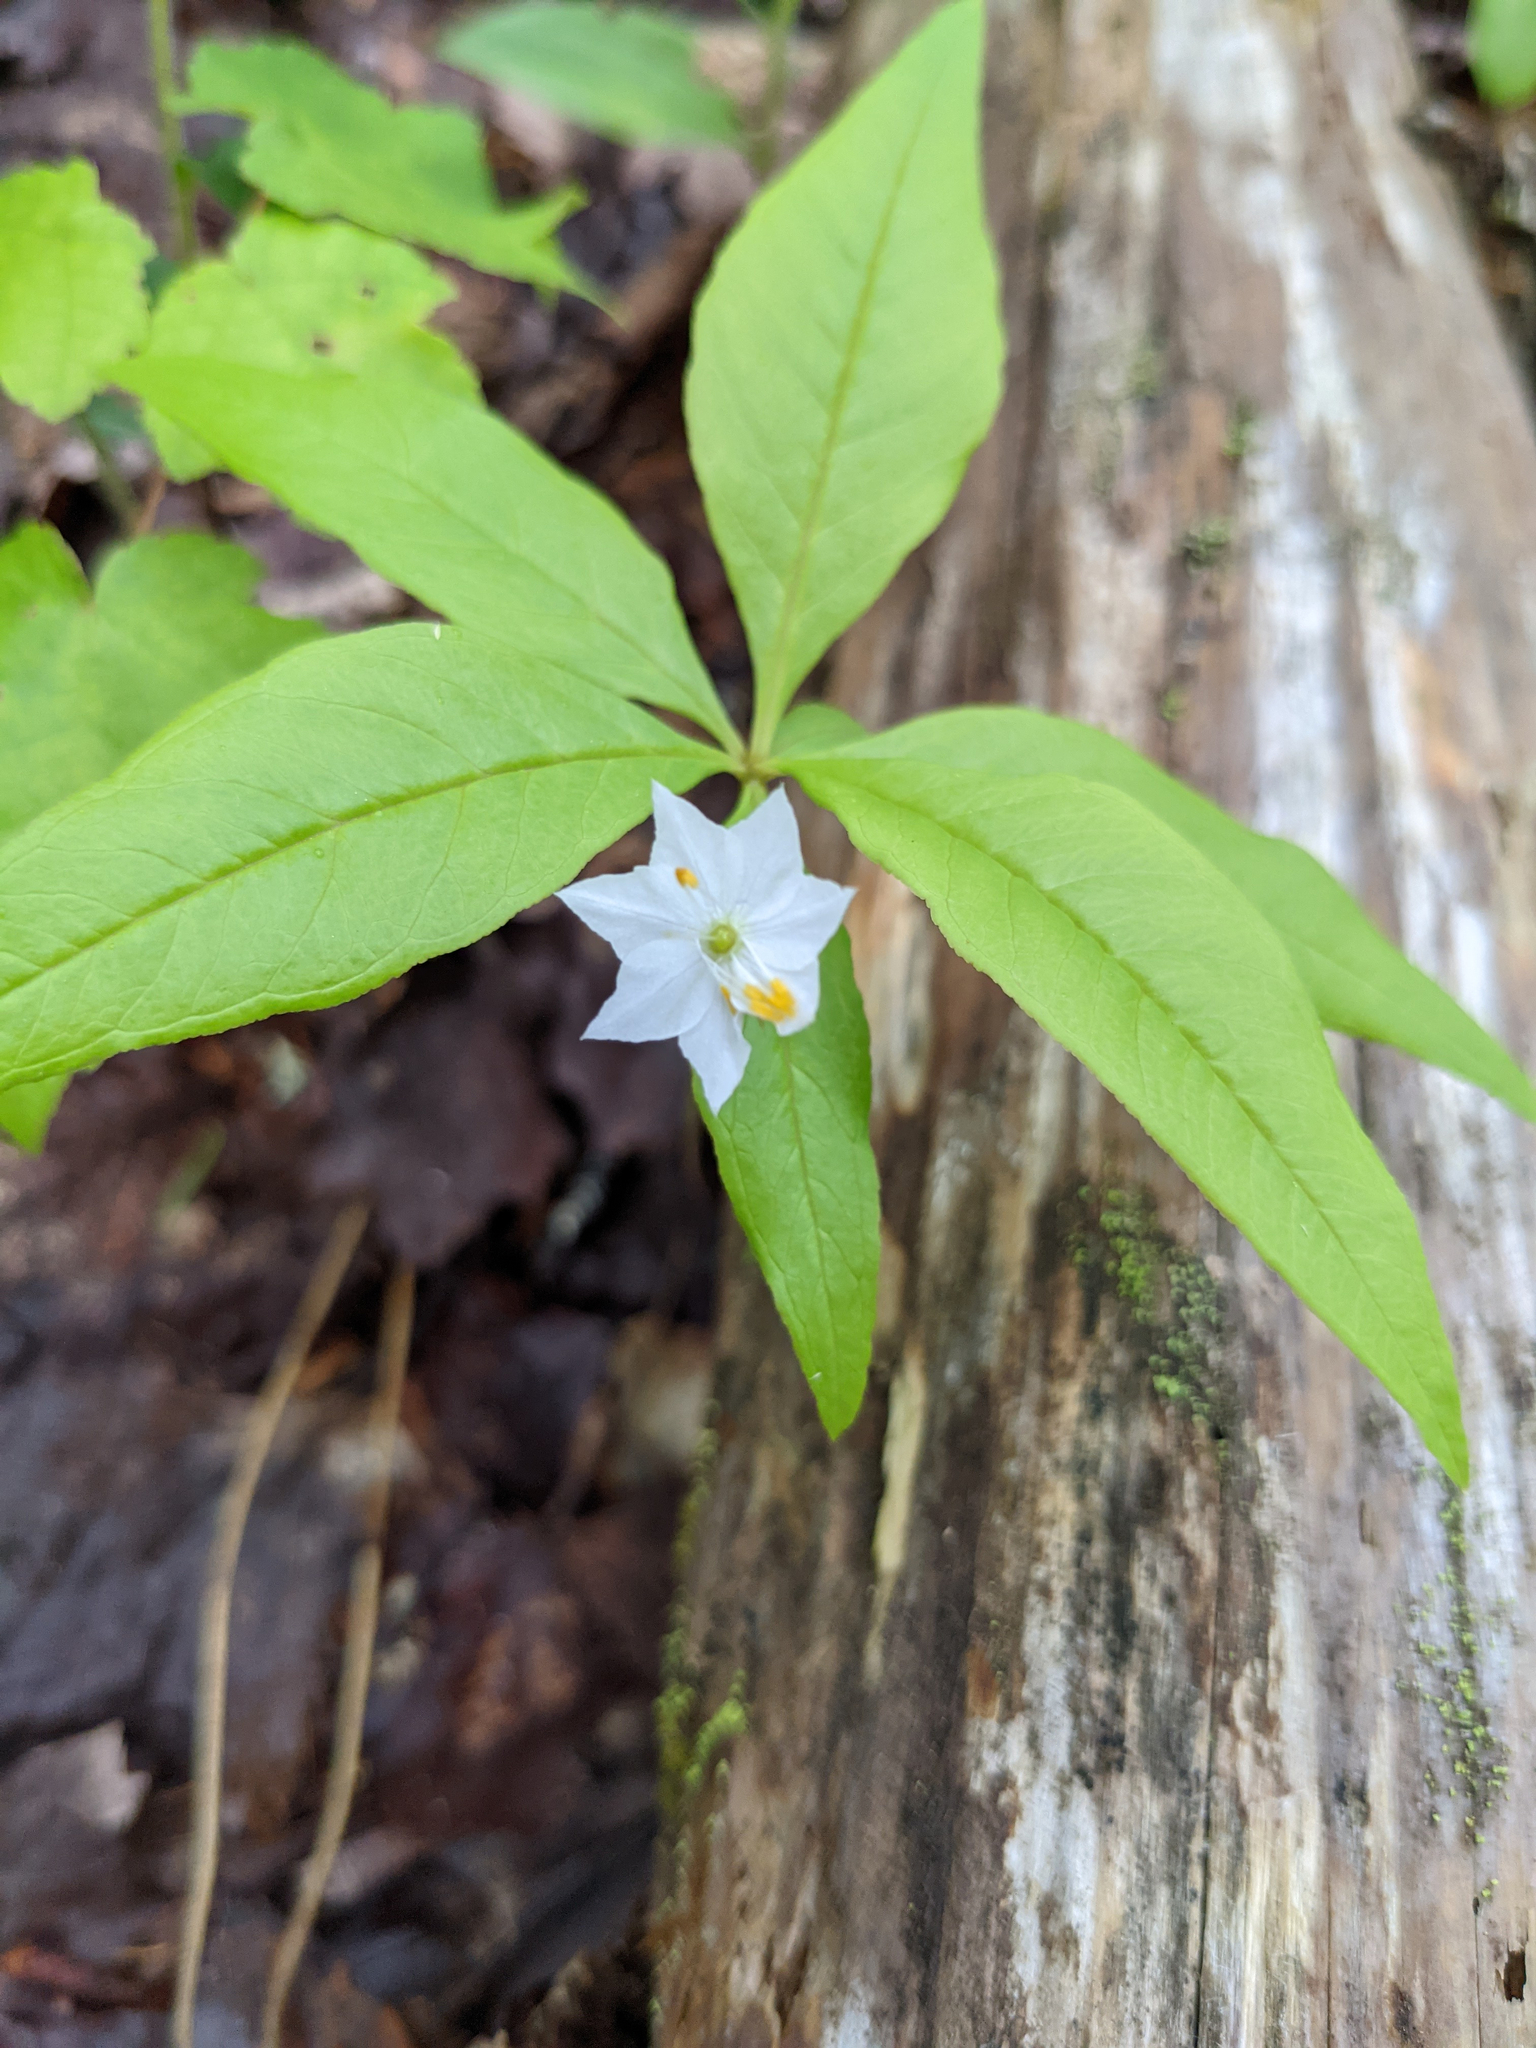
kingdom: Plantae
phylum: Tracheophyta
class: Magnoliopsida
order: Ericales
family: Primulaceae
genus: Lysimachia
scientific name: Lysimachia borealis
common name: American starflower
